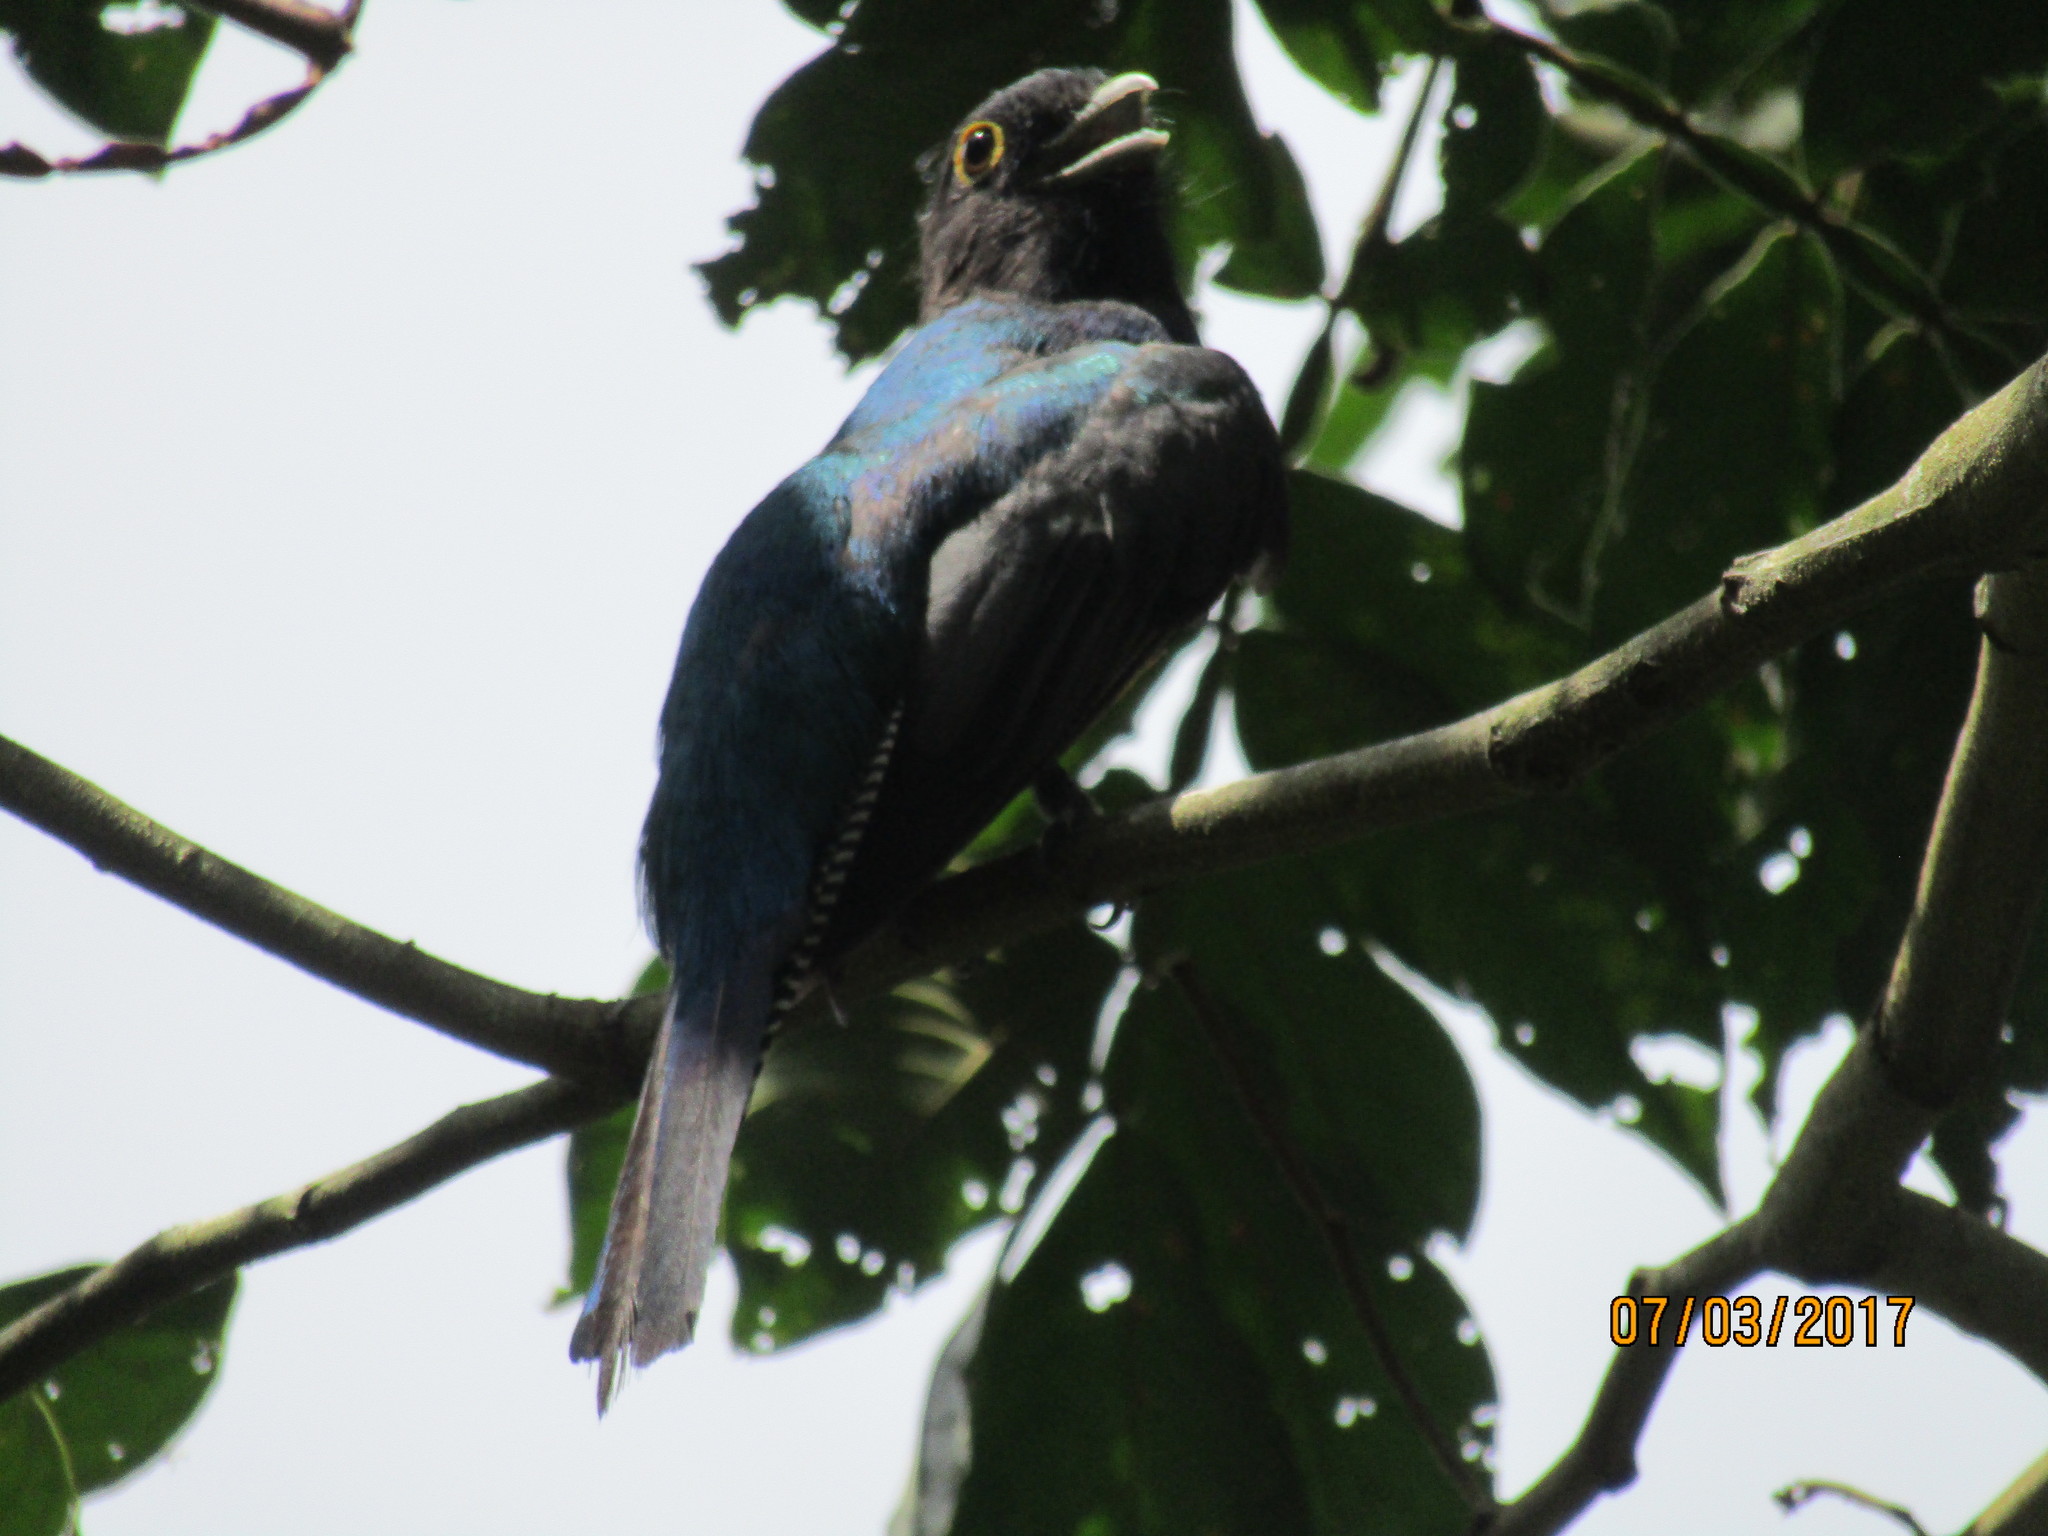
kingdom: Animalia
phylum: Chordata
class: Aves
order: Trogoniformes
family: Trogonidae
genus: Trogon
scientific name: Trogon caligatus
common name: Gartered trogon
